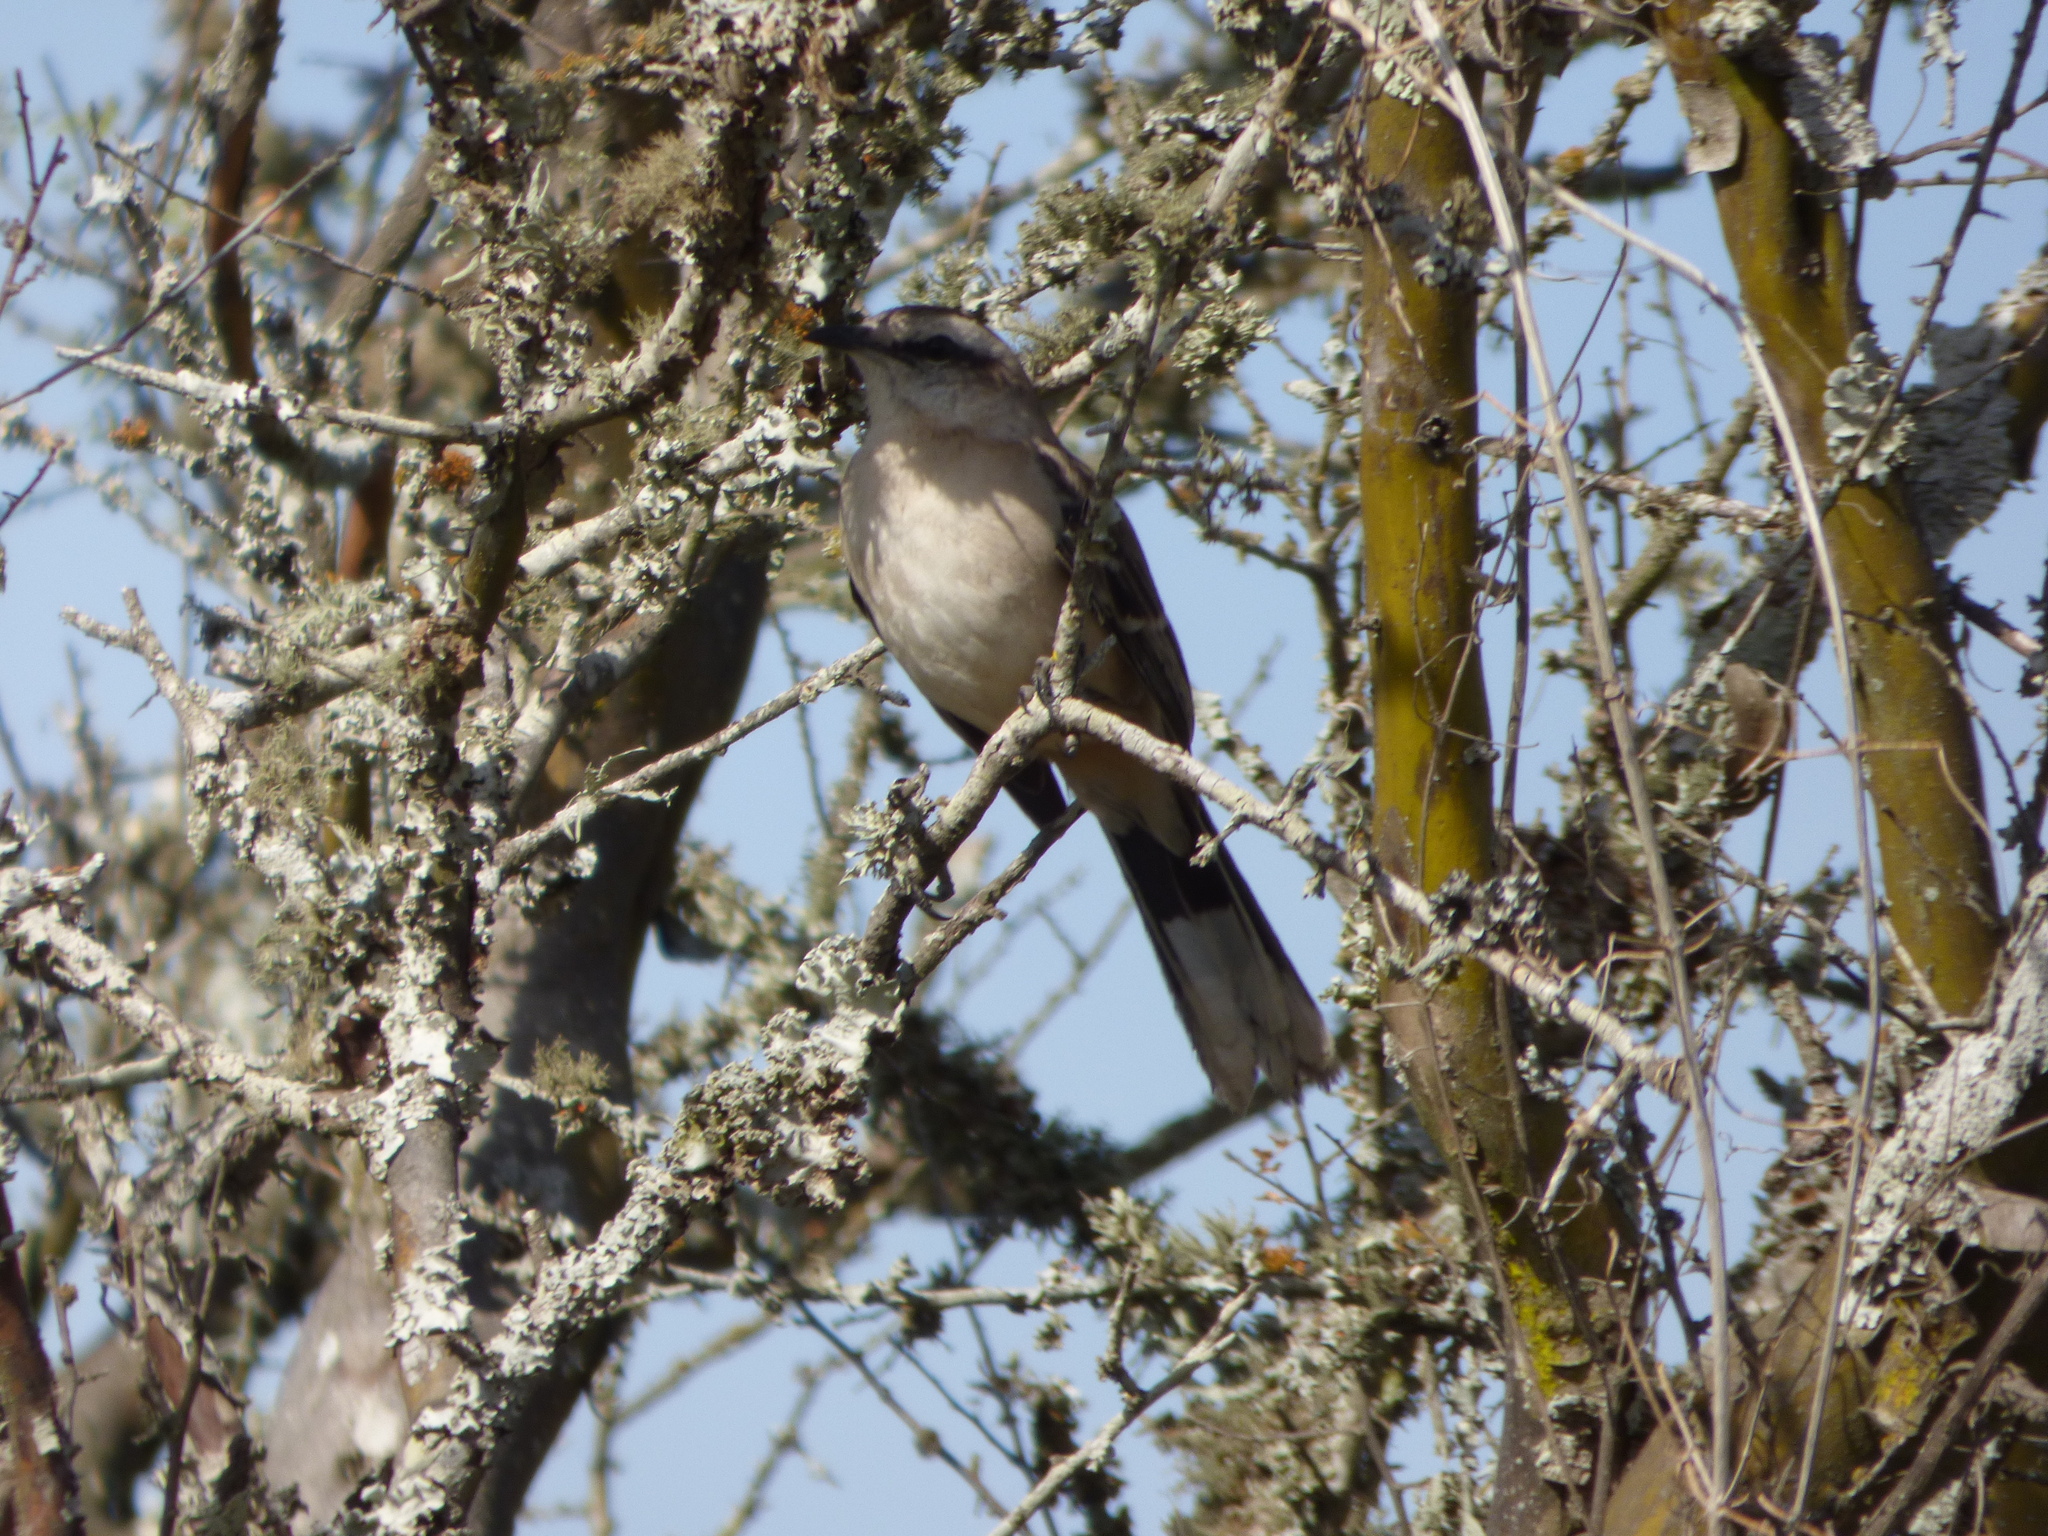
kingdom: Animalia
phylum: Chordata
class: Aves
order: Passeriformes
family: Mimidae
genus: Mimus
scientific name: Mimus saturninus
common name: Chalk-browed mockingbird
